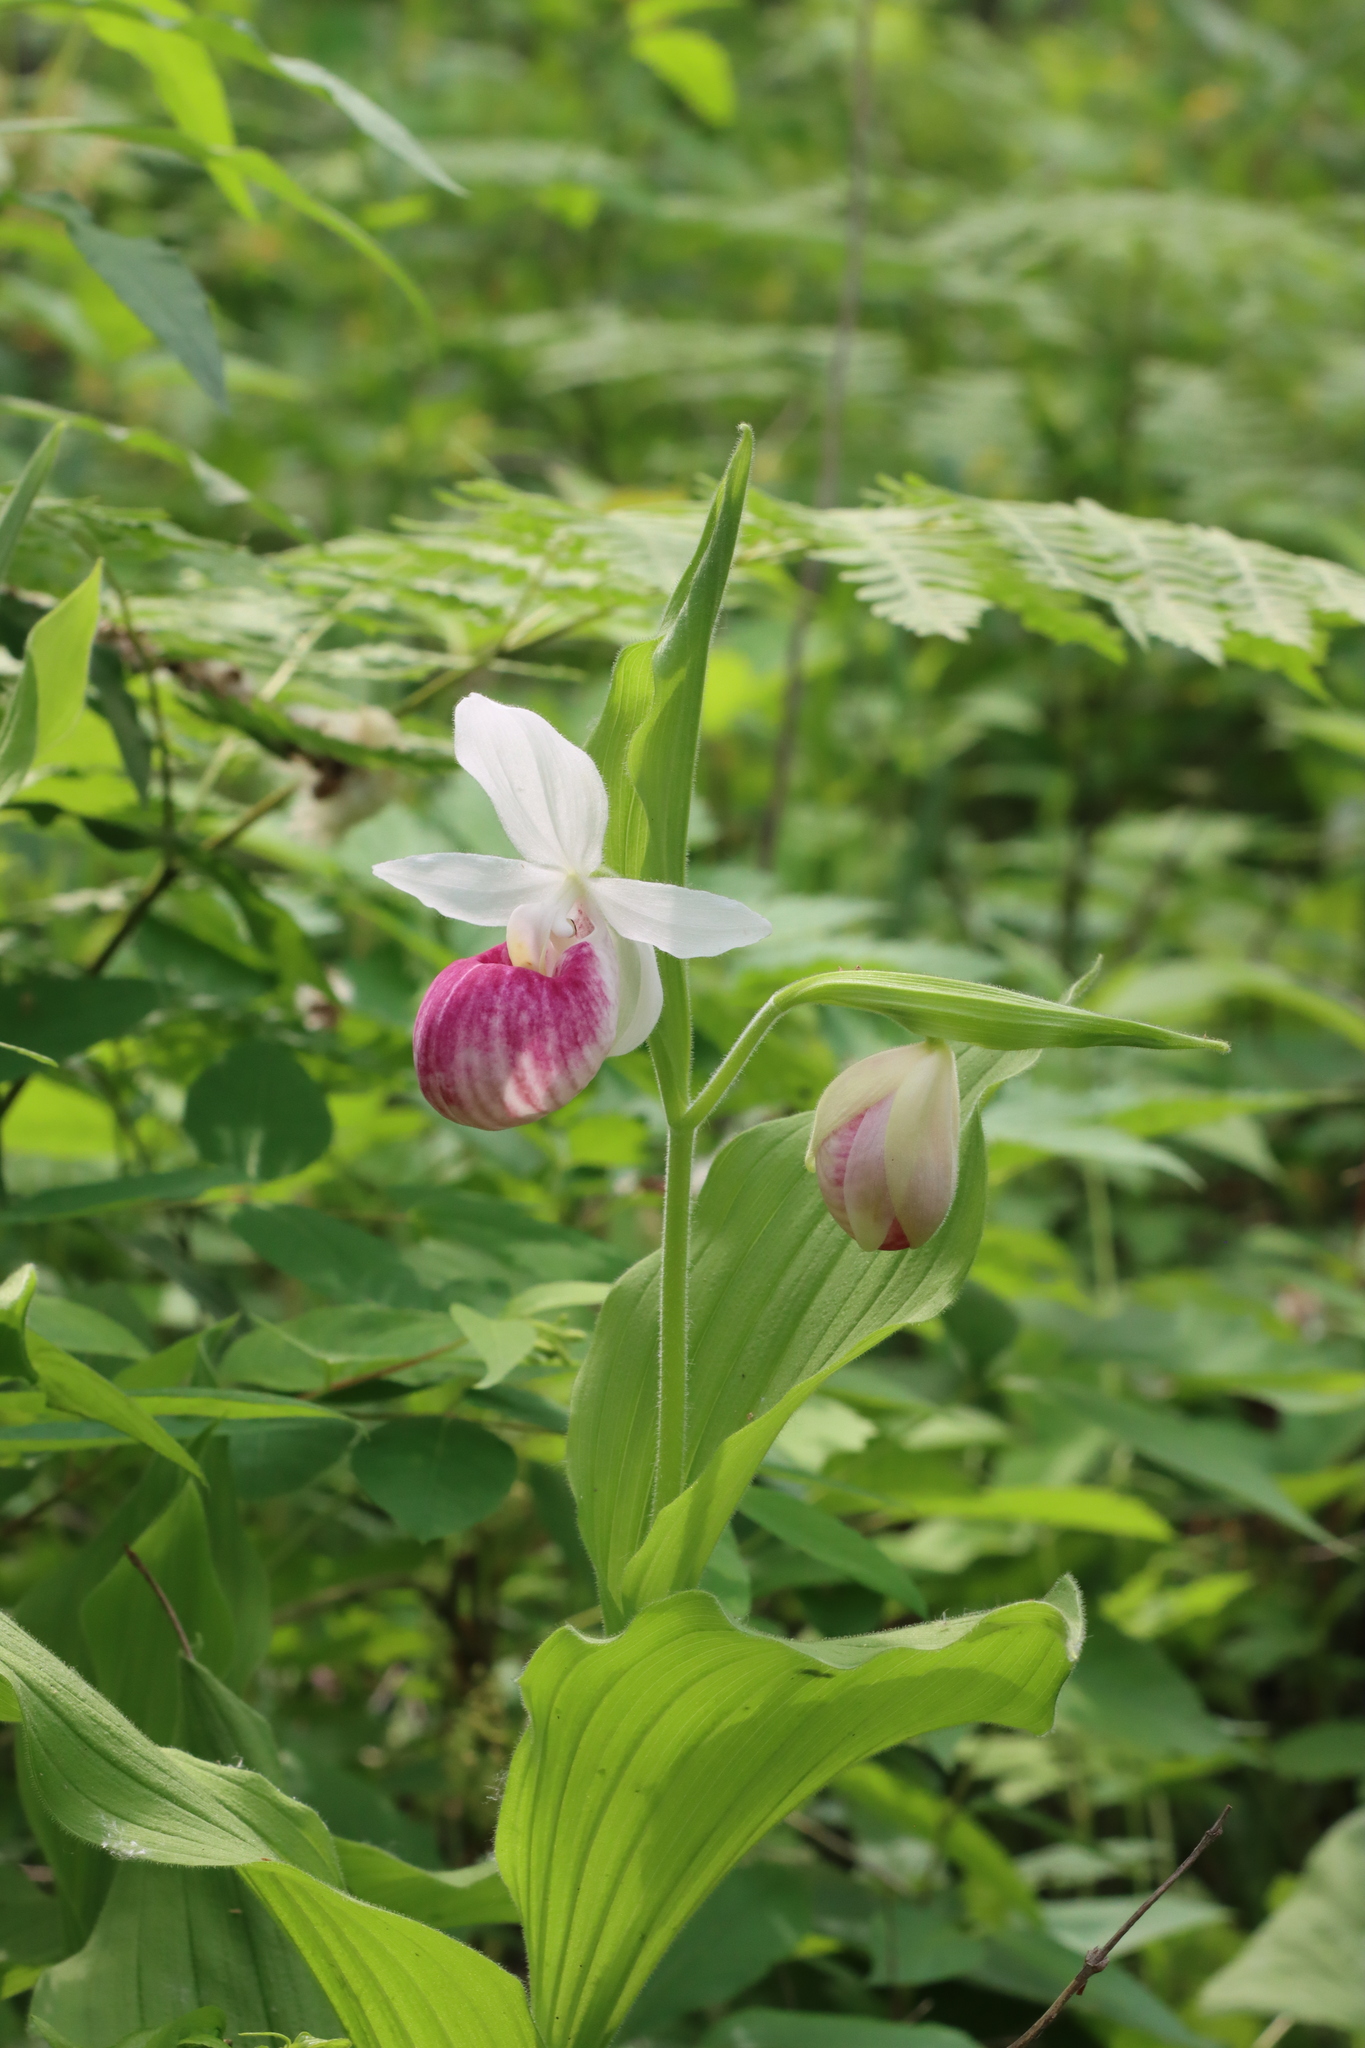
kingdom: Plantae
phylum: Tracheophyta
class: Liliopsida
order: Asparagales
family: Orchidaceae
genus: Cypripedium
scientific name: Cypripedium reginae
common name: Queen lady's-slipper
